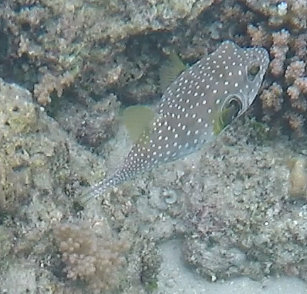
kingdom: Animalia
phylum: Chordata
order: Tetraodontiformes
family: Tetraodontidae
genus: Arothron
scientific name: Arothron hispidus
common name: Stripebelly puffer
